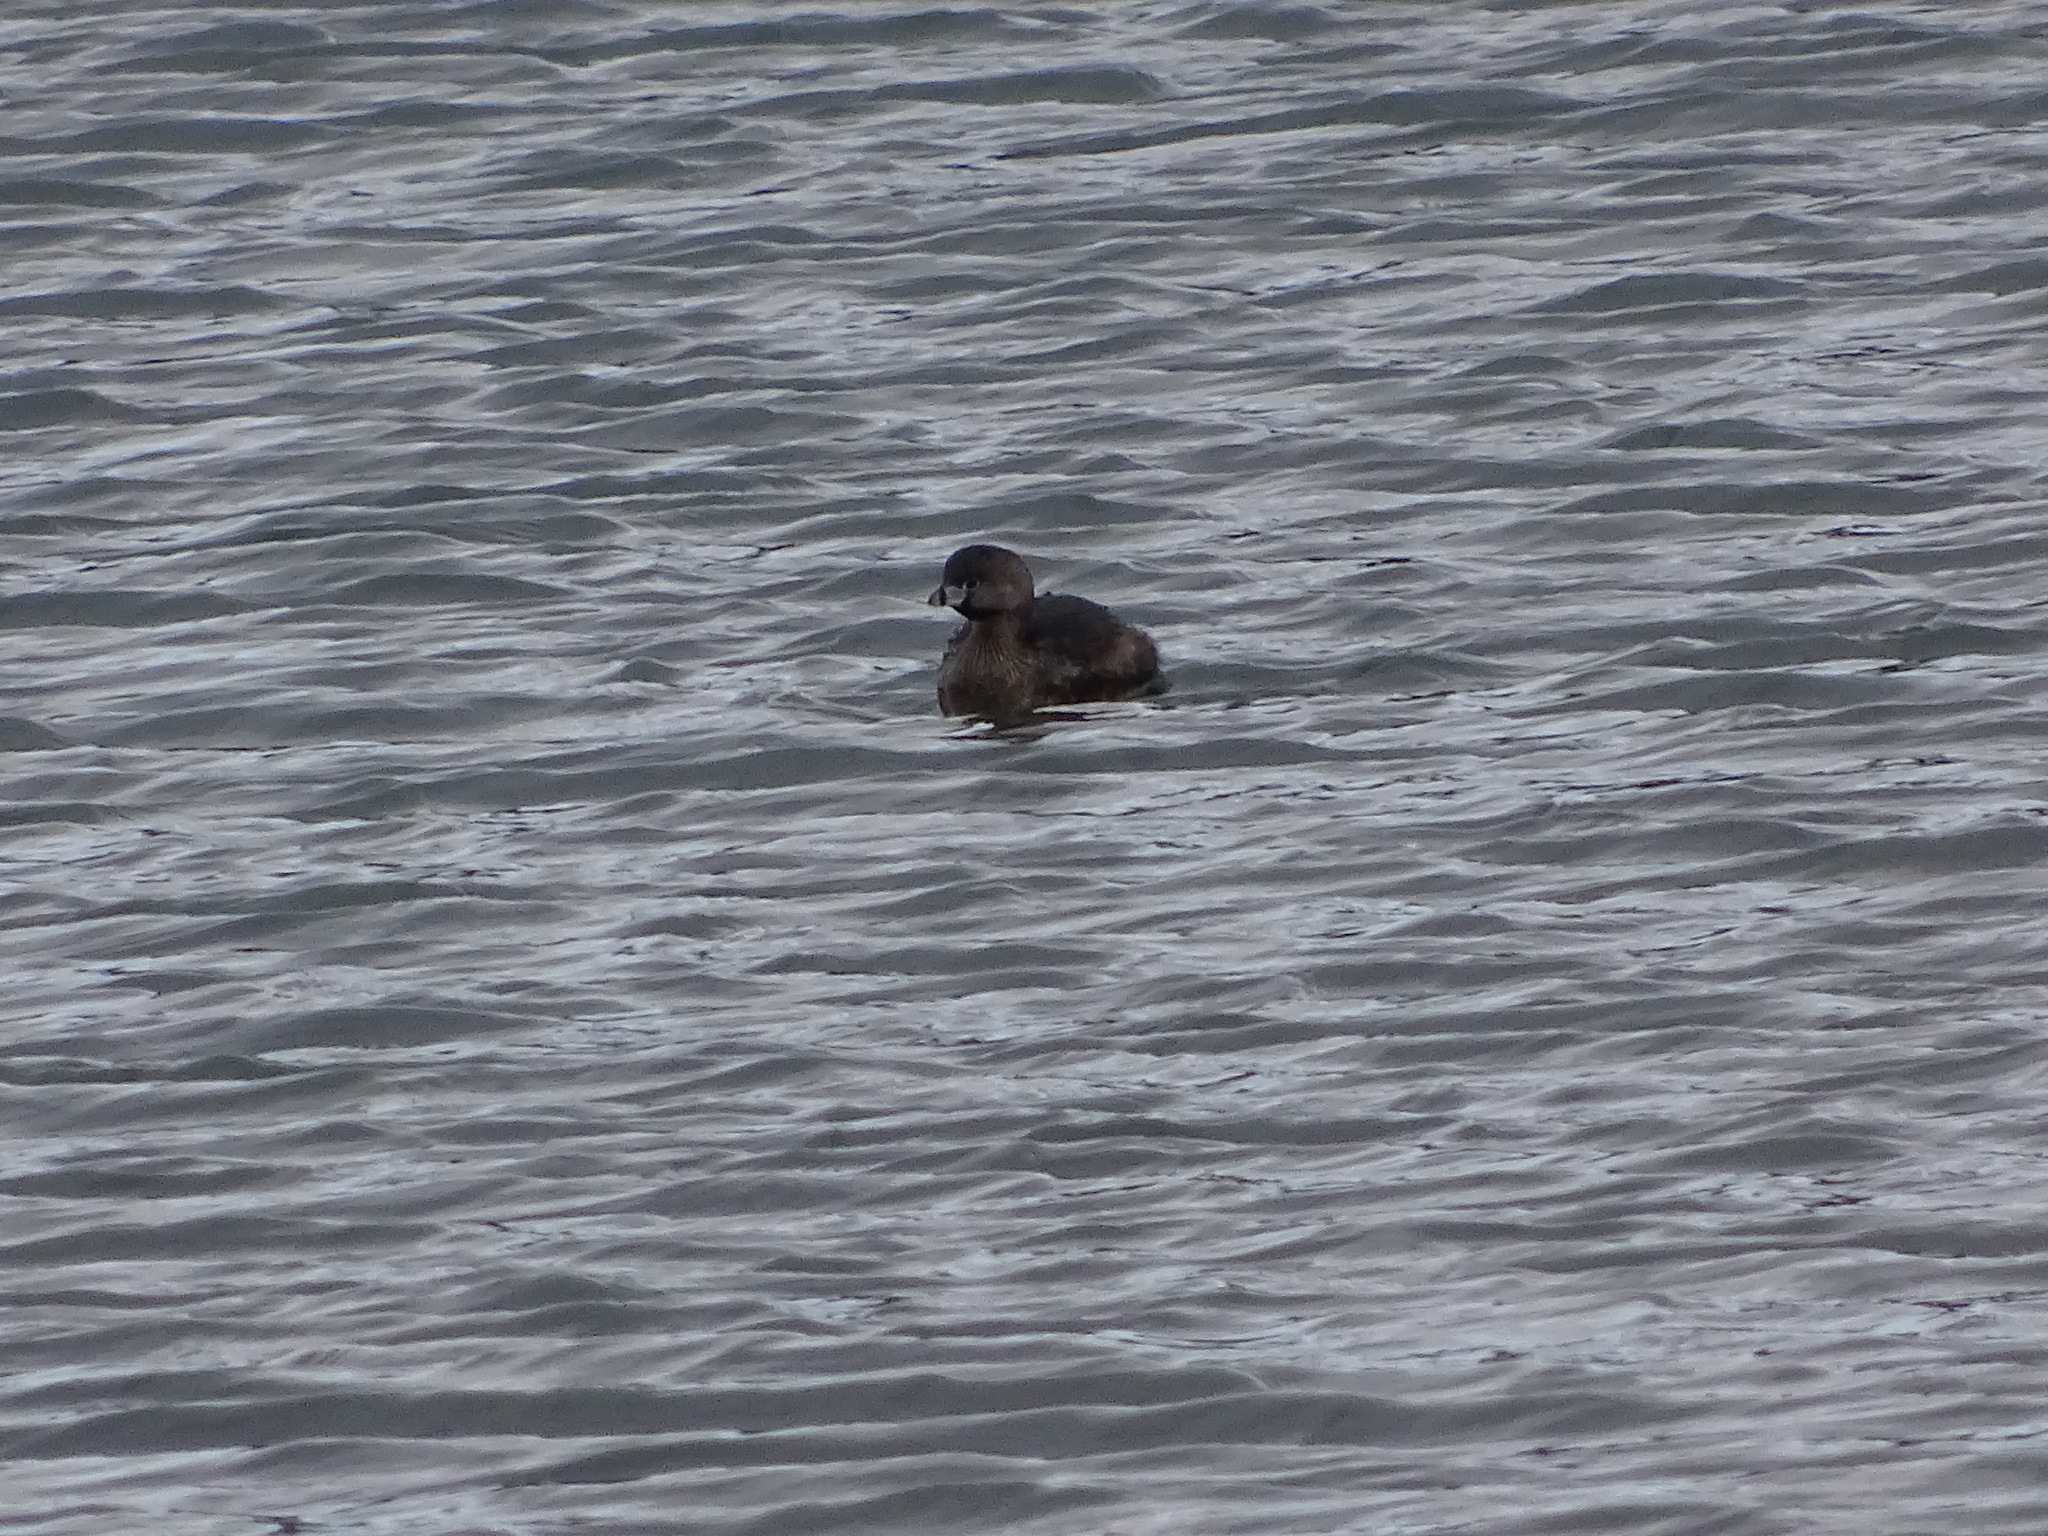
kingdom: Animalia
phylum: Chordata
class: Aves
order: Podicipediformes
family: Podicipedidae
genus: Podilymbus
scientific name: Podilymbus podiceps
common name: Pied-billed grebe
